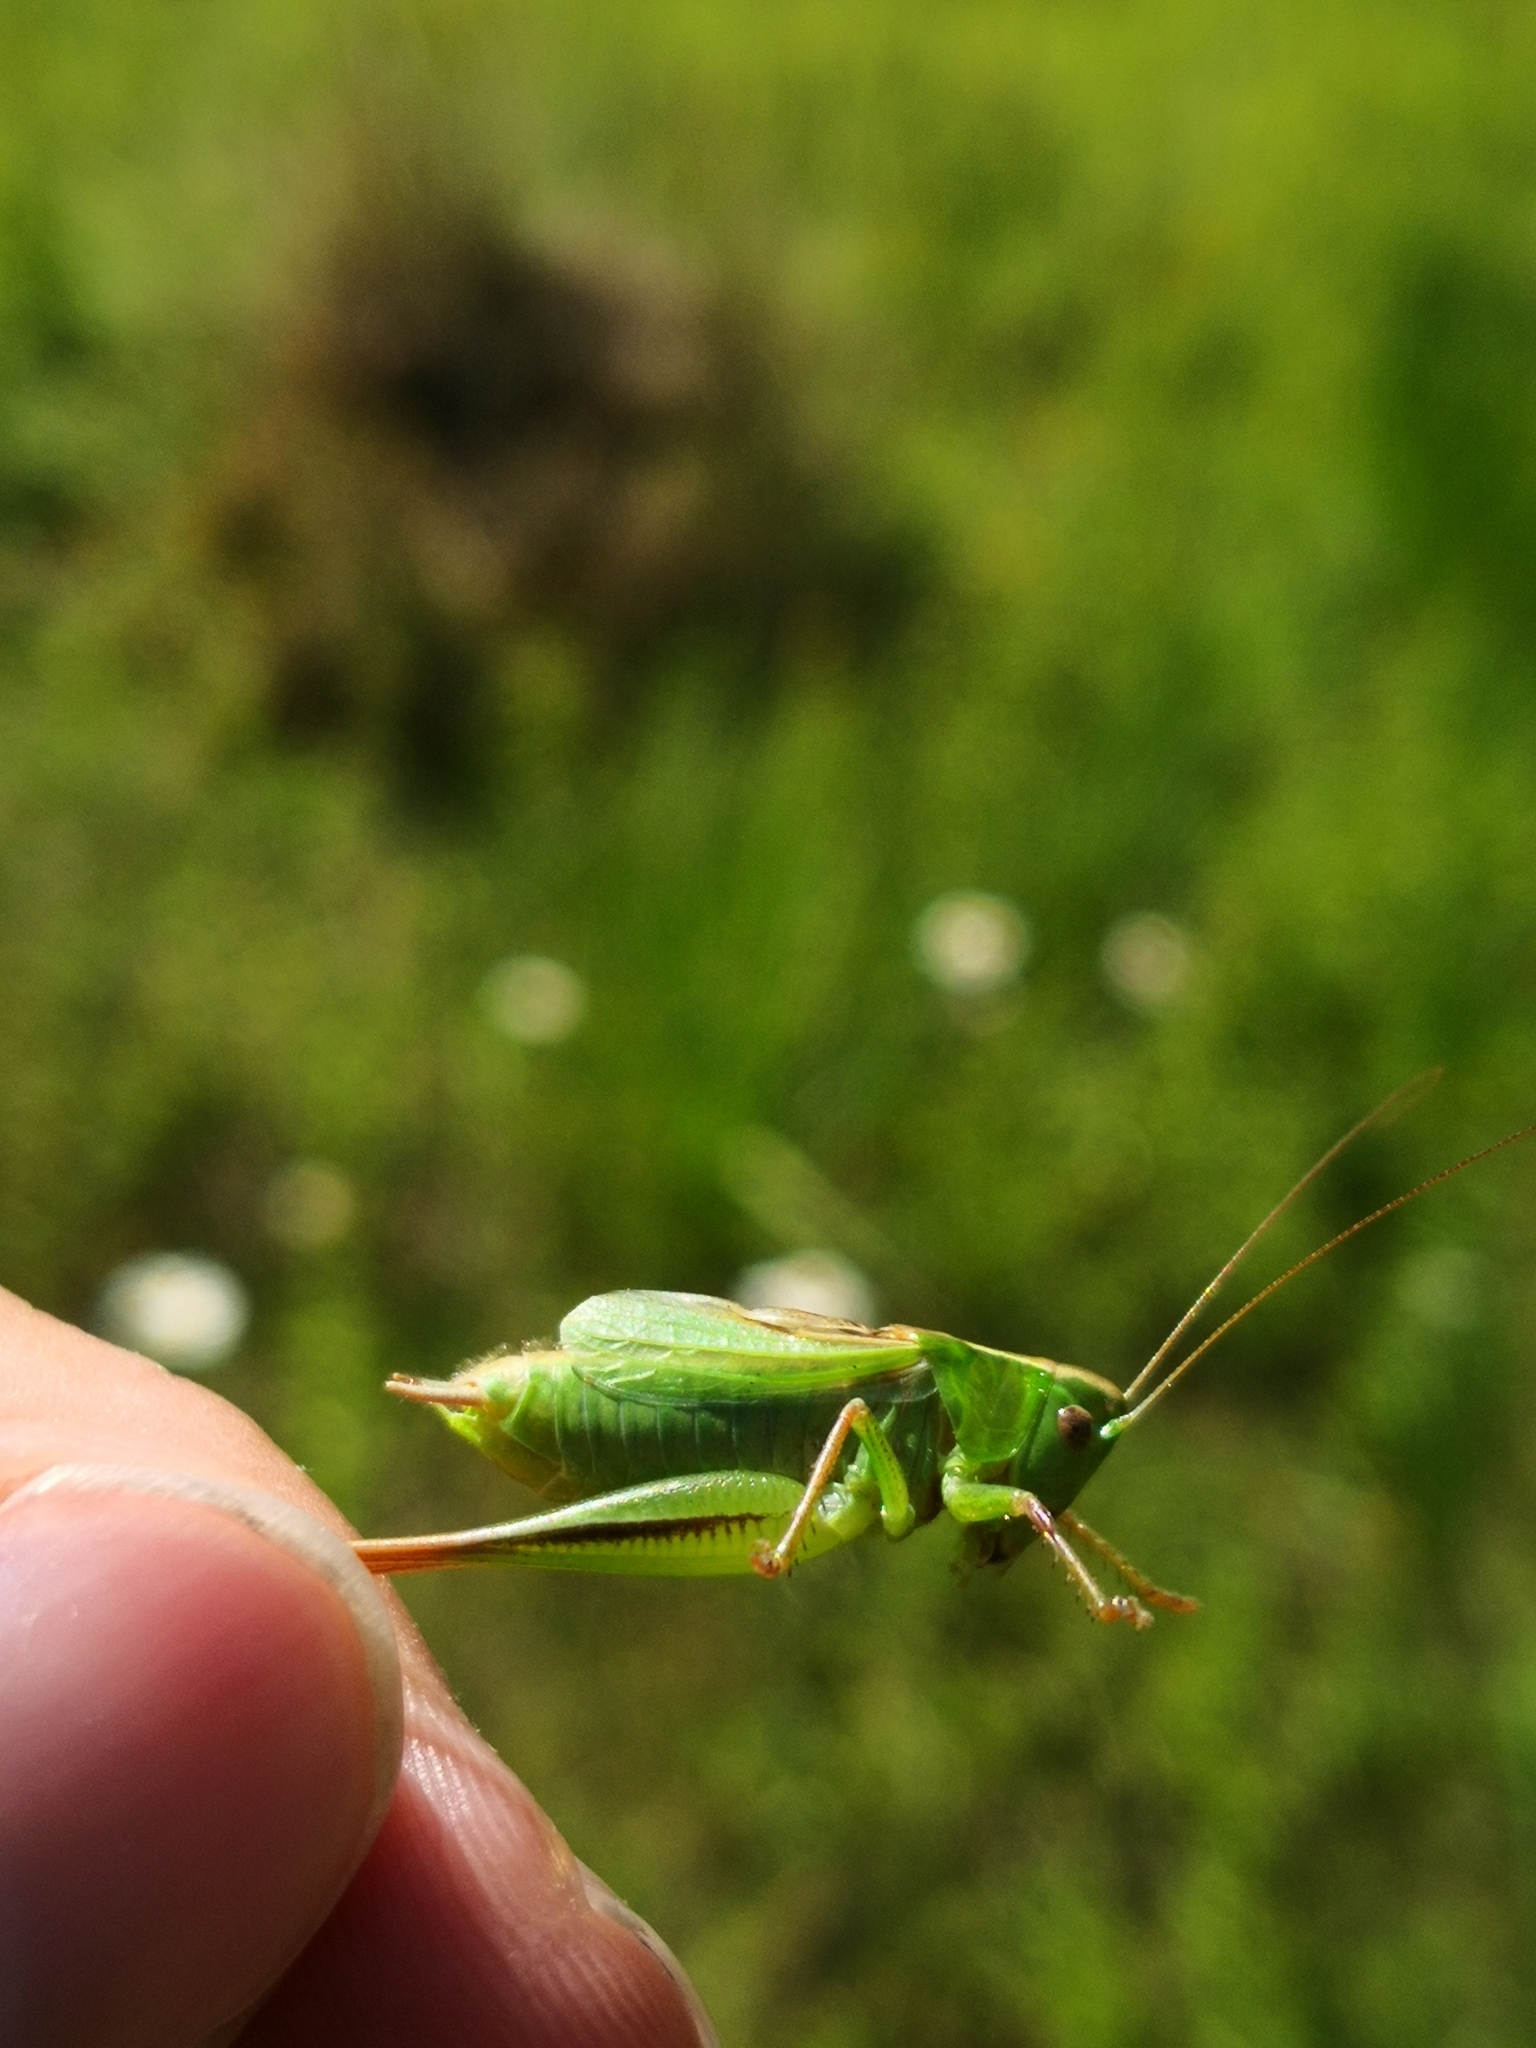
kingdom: Animalia
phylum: Arthropoda
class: Insecta
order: Orthoptera
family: Tettigoniidae
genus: Bicolorana
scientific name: Bicolorana bicolor
